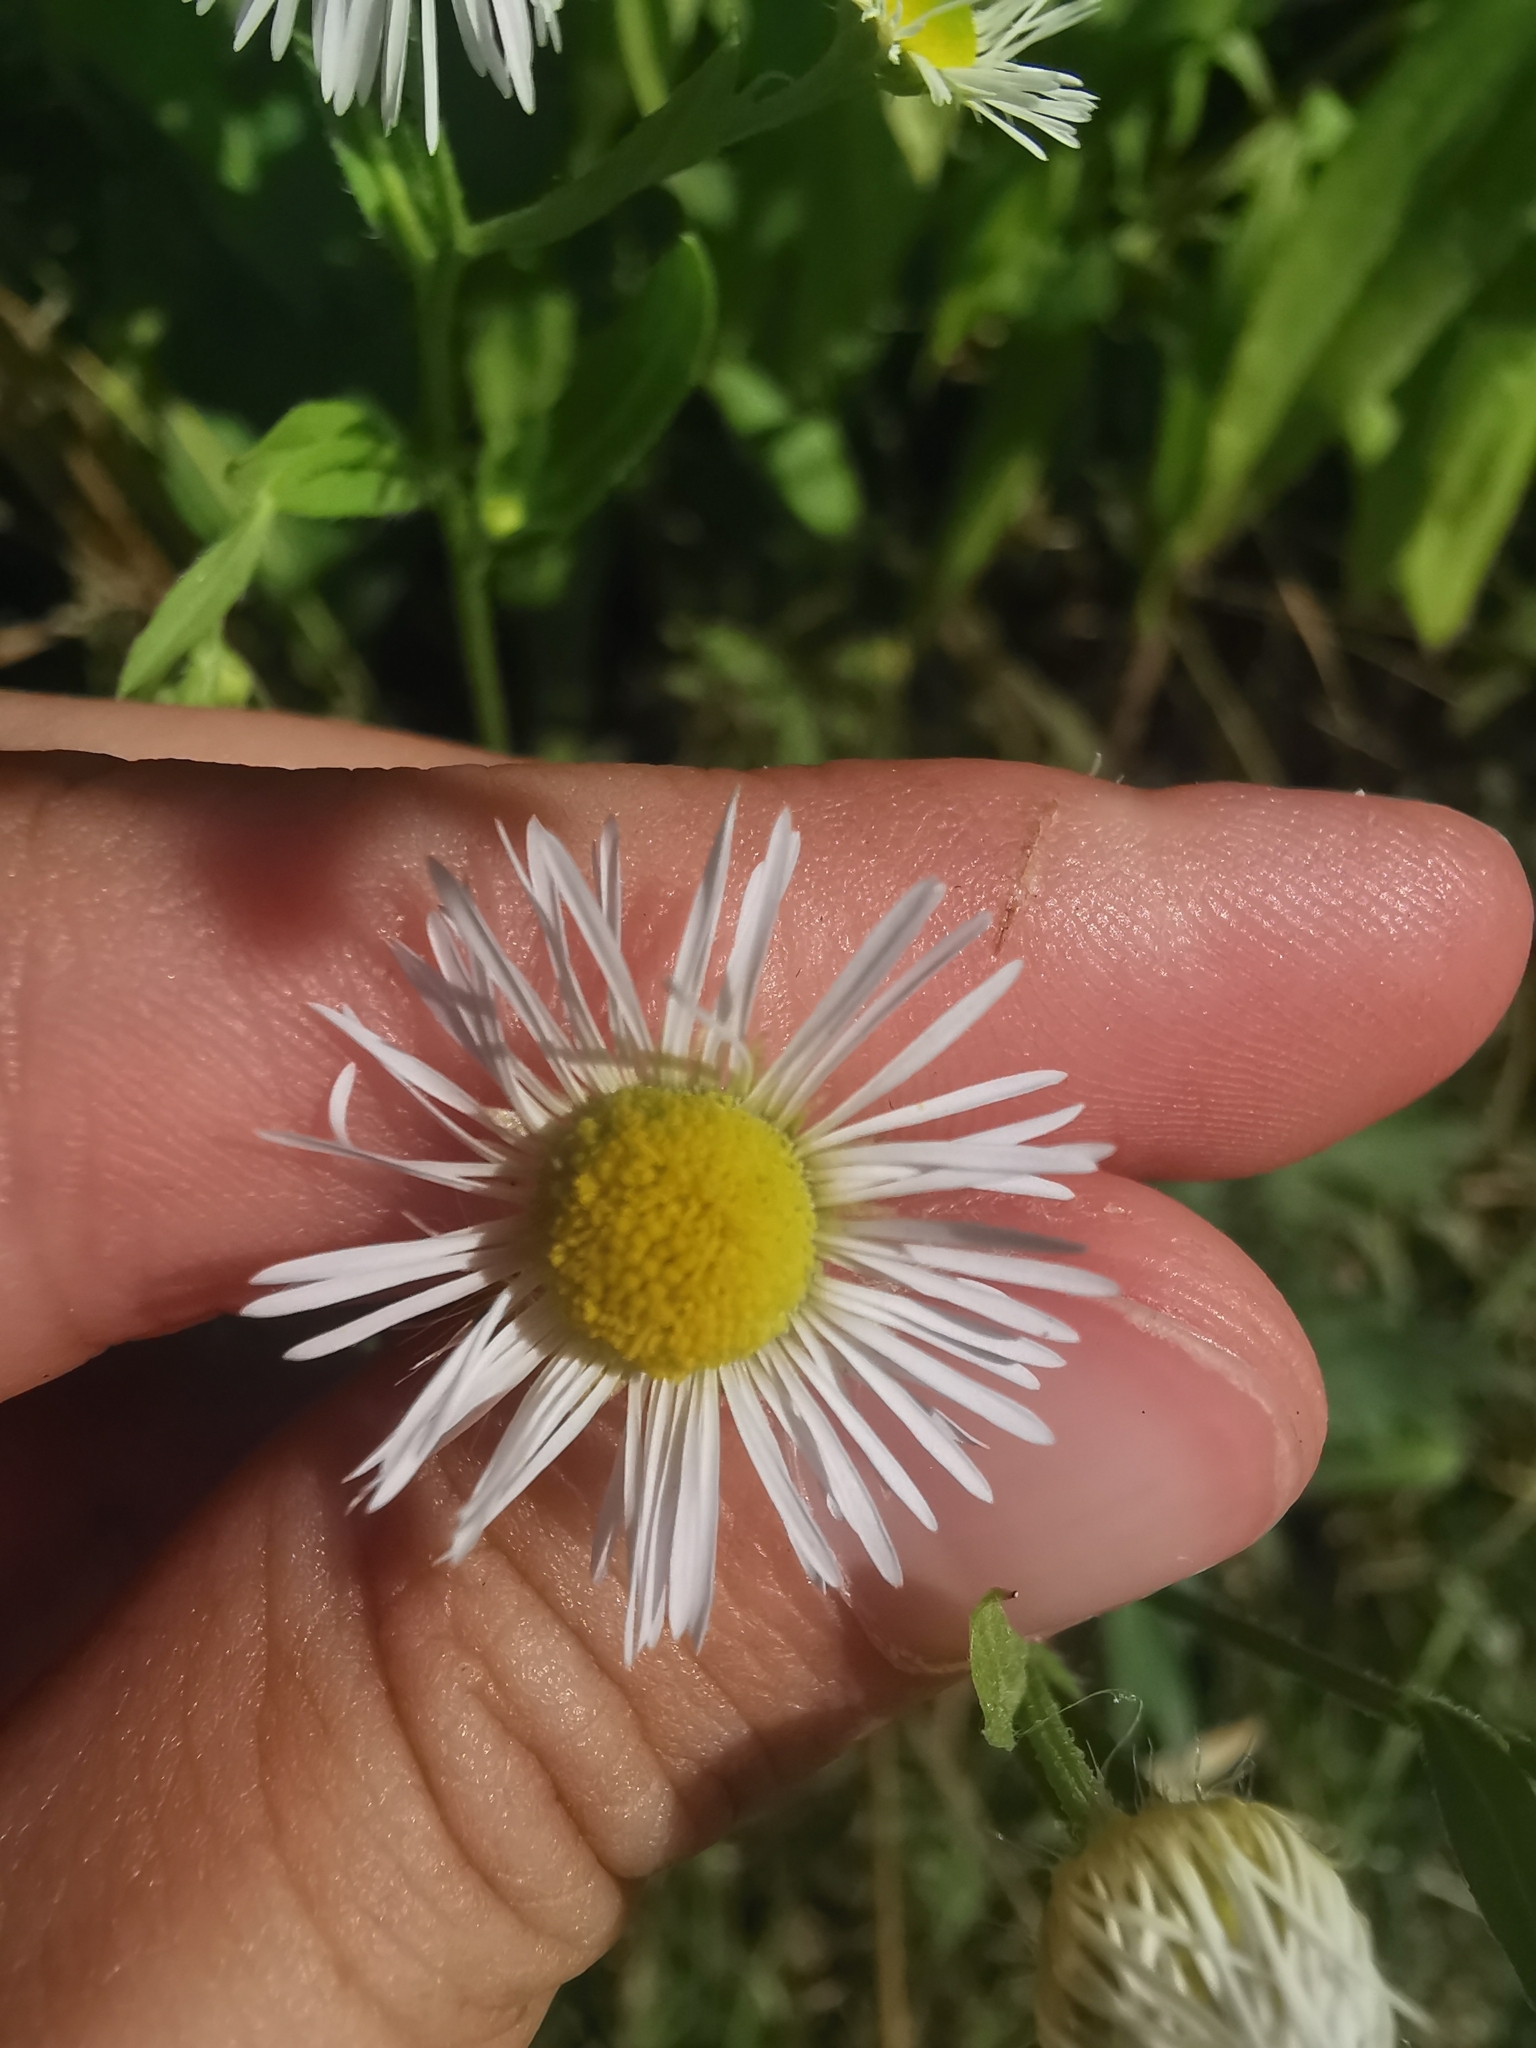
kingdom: Plantae
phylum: Tracheophyta
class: Magnoliopsida
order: Asterales
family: Asteraceae
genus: Erigeron
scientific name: Erigeron annuus
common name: Tall fleabane
